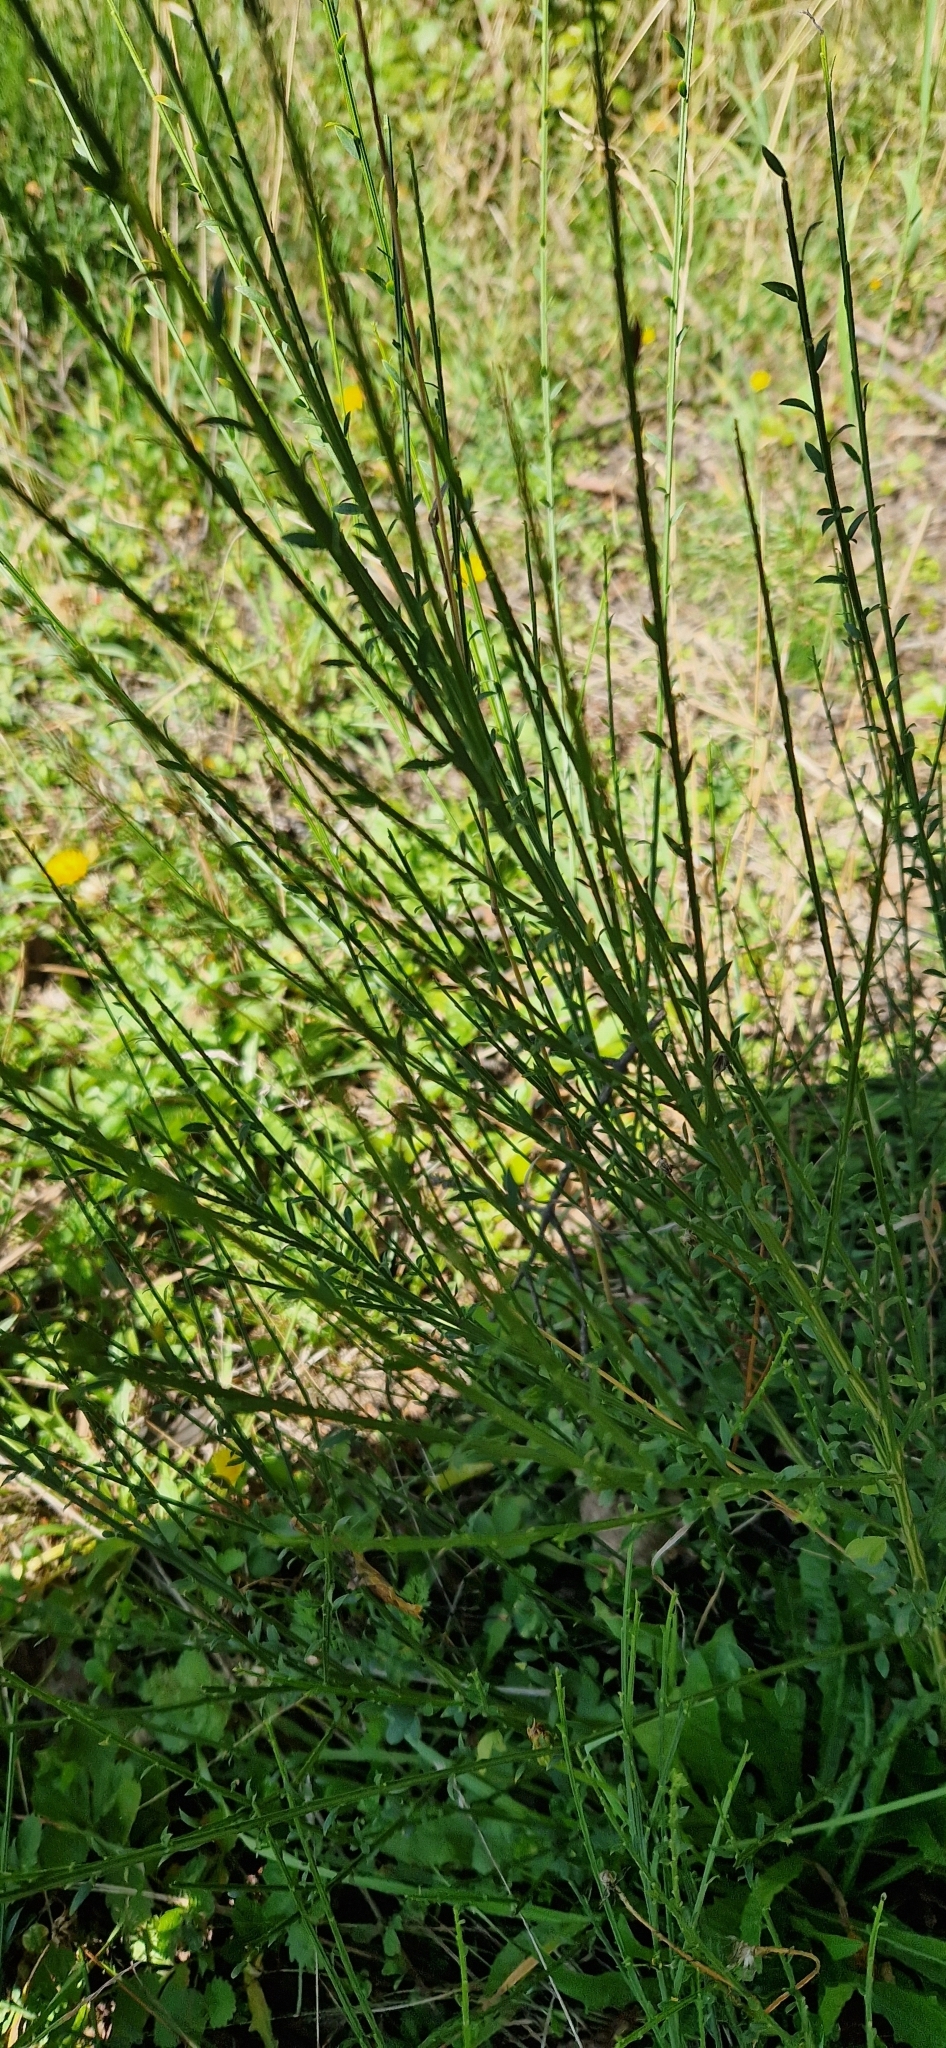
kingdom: Plantae
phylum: Tracheophyta
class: Magnoliopsida
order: Fabales
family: Fabaceae
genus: Cytisus
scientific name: Cytisus scoparius
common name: Scotch broom
